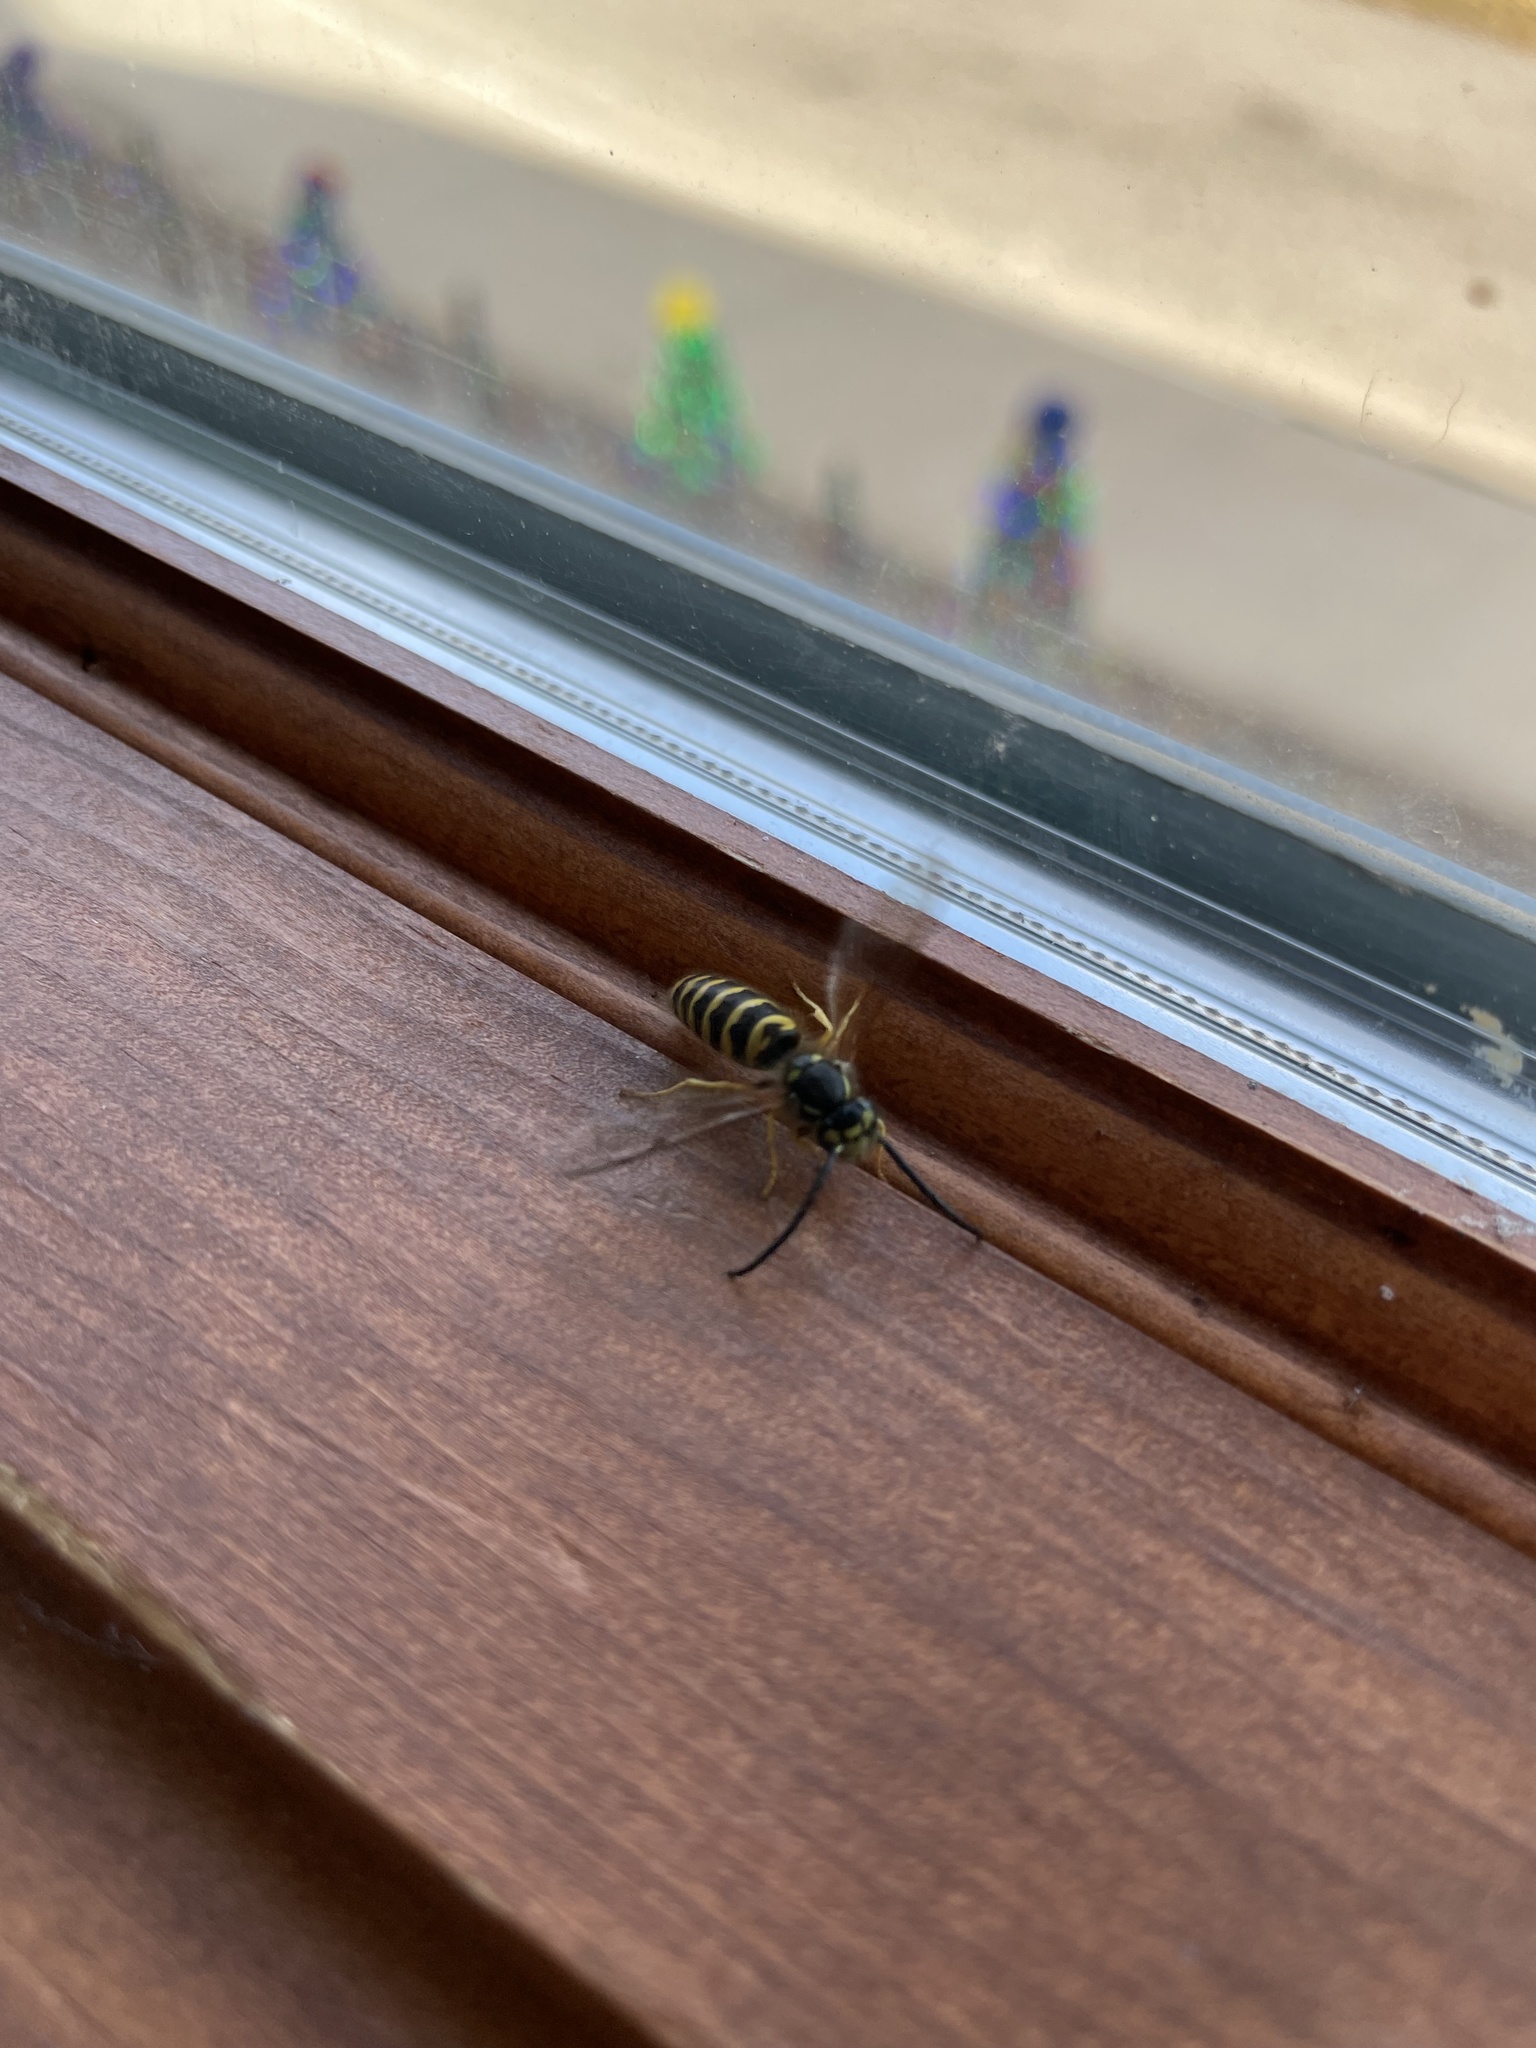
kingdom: Animalia
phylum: Arthropoda
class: Insecta
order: Hymenoptera
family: Vespidae
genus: Vespula
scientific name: Vespula maculifrons
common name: Eastern yellowjacket
